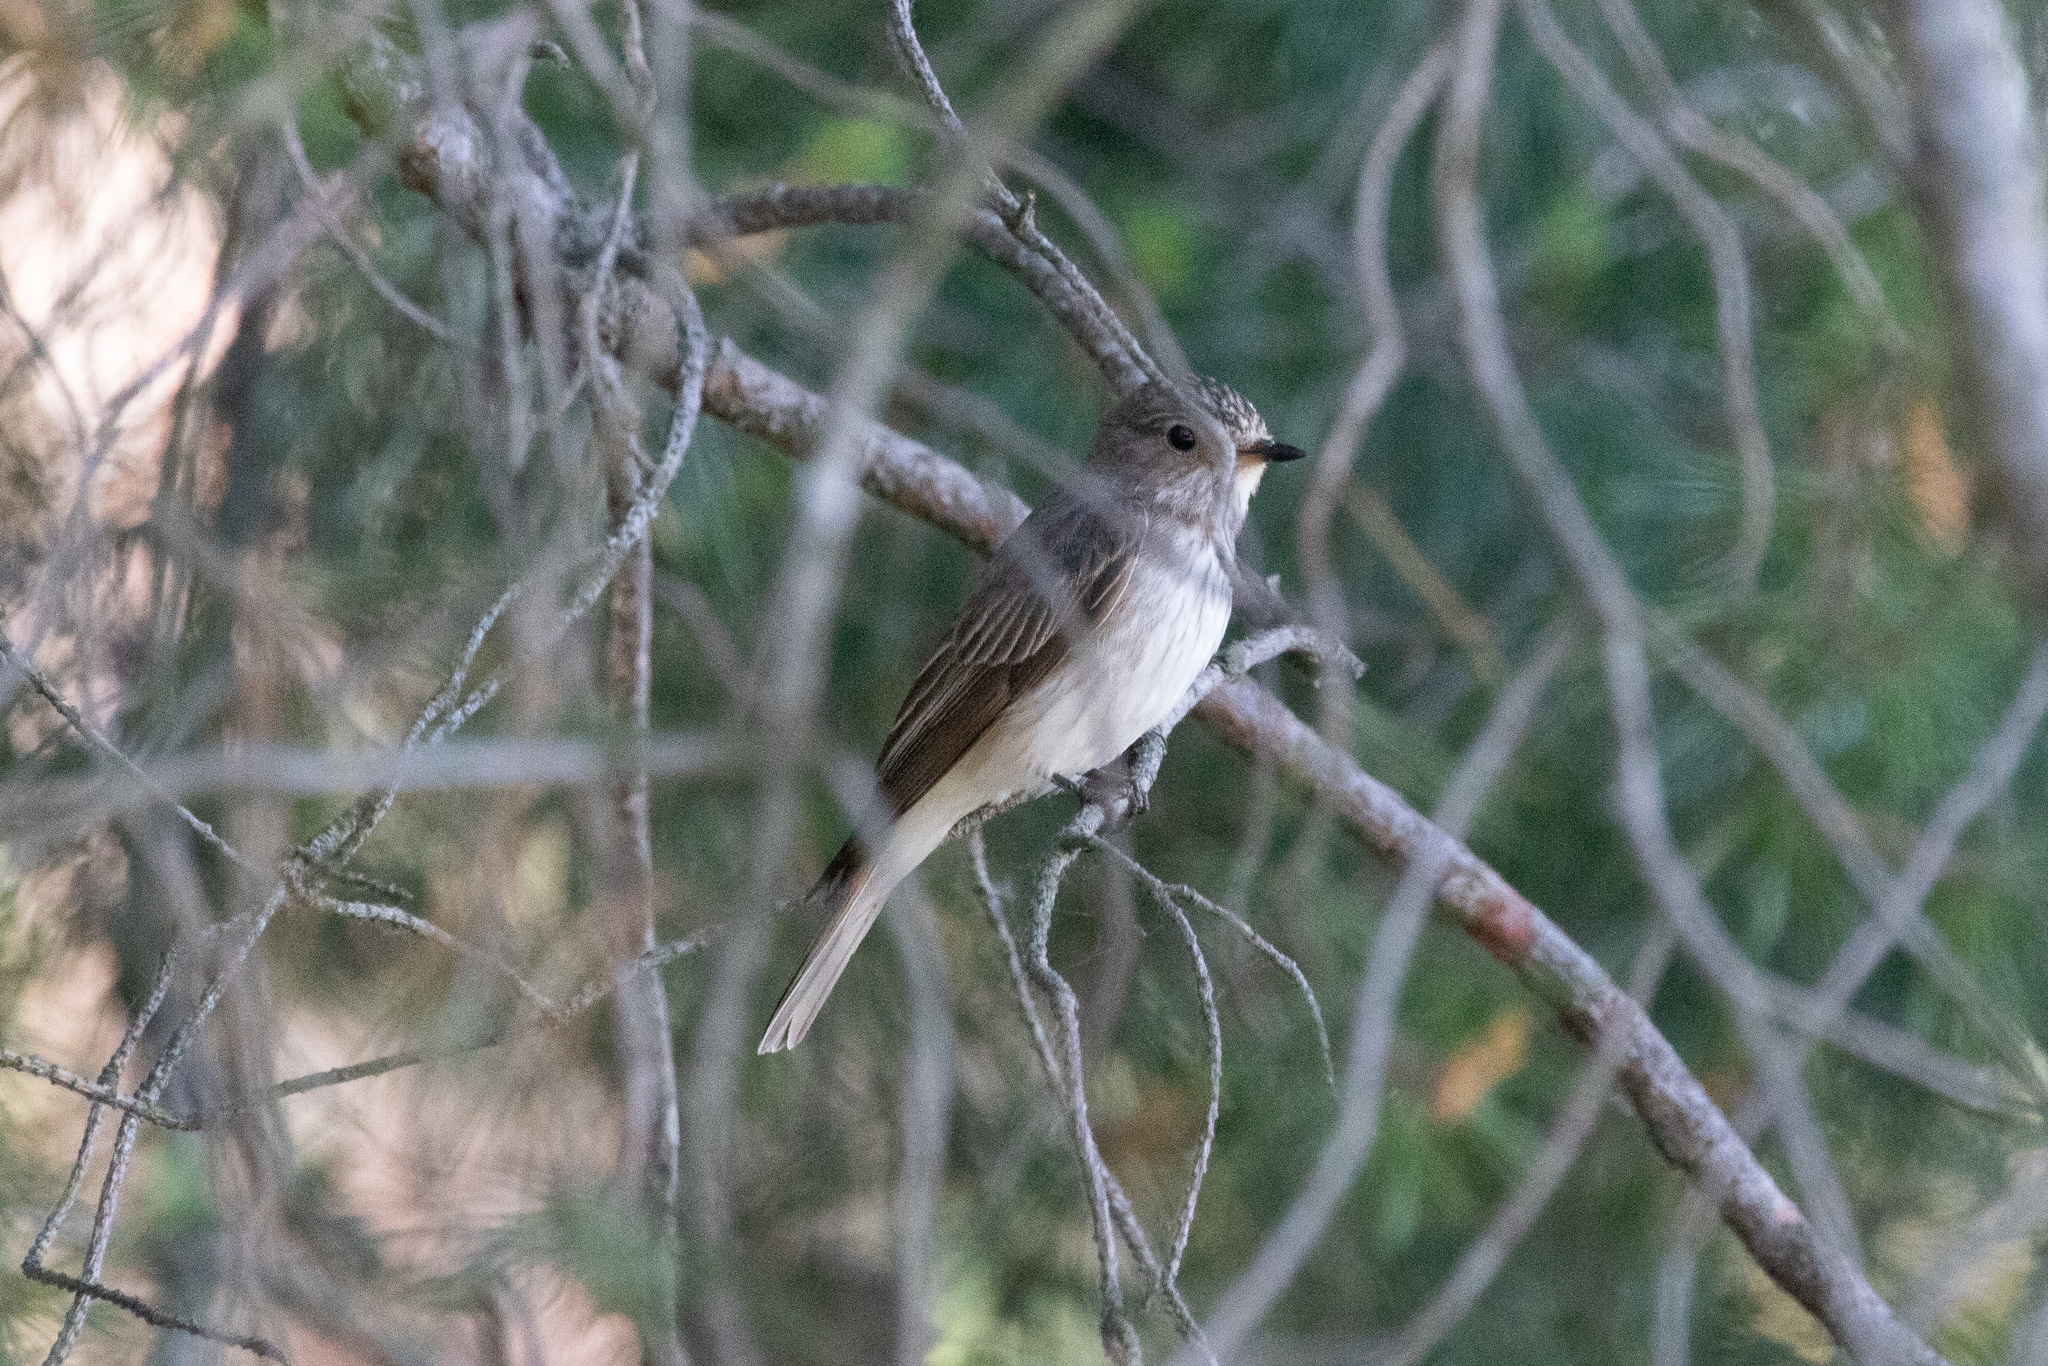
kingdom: Animalia
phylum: Chordata
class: Aves
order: Passeriformes
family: Muscicapidae
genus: Muscicapa
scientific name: Muscicapa striata
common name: Spotted flycatcher
